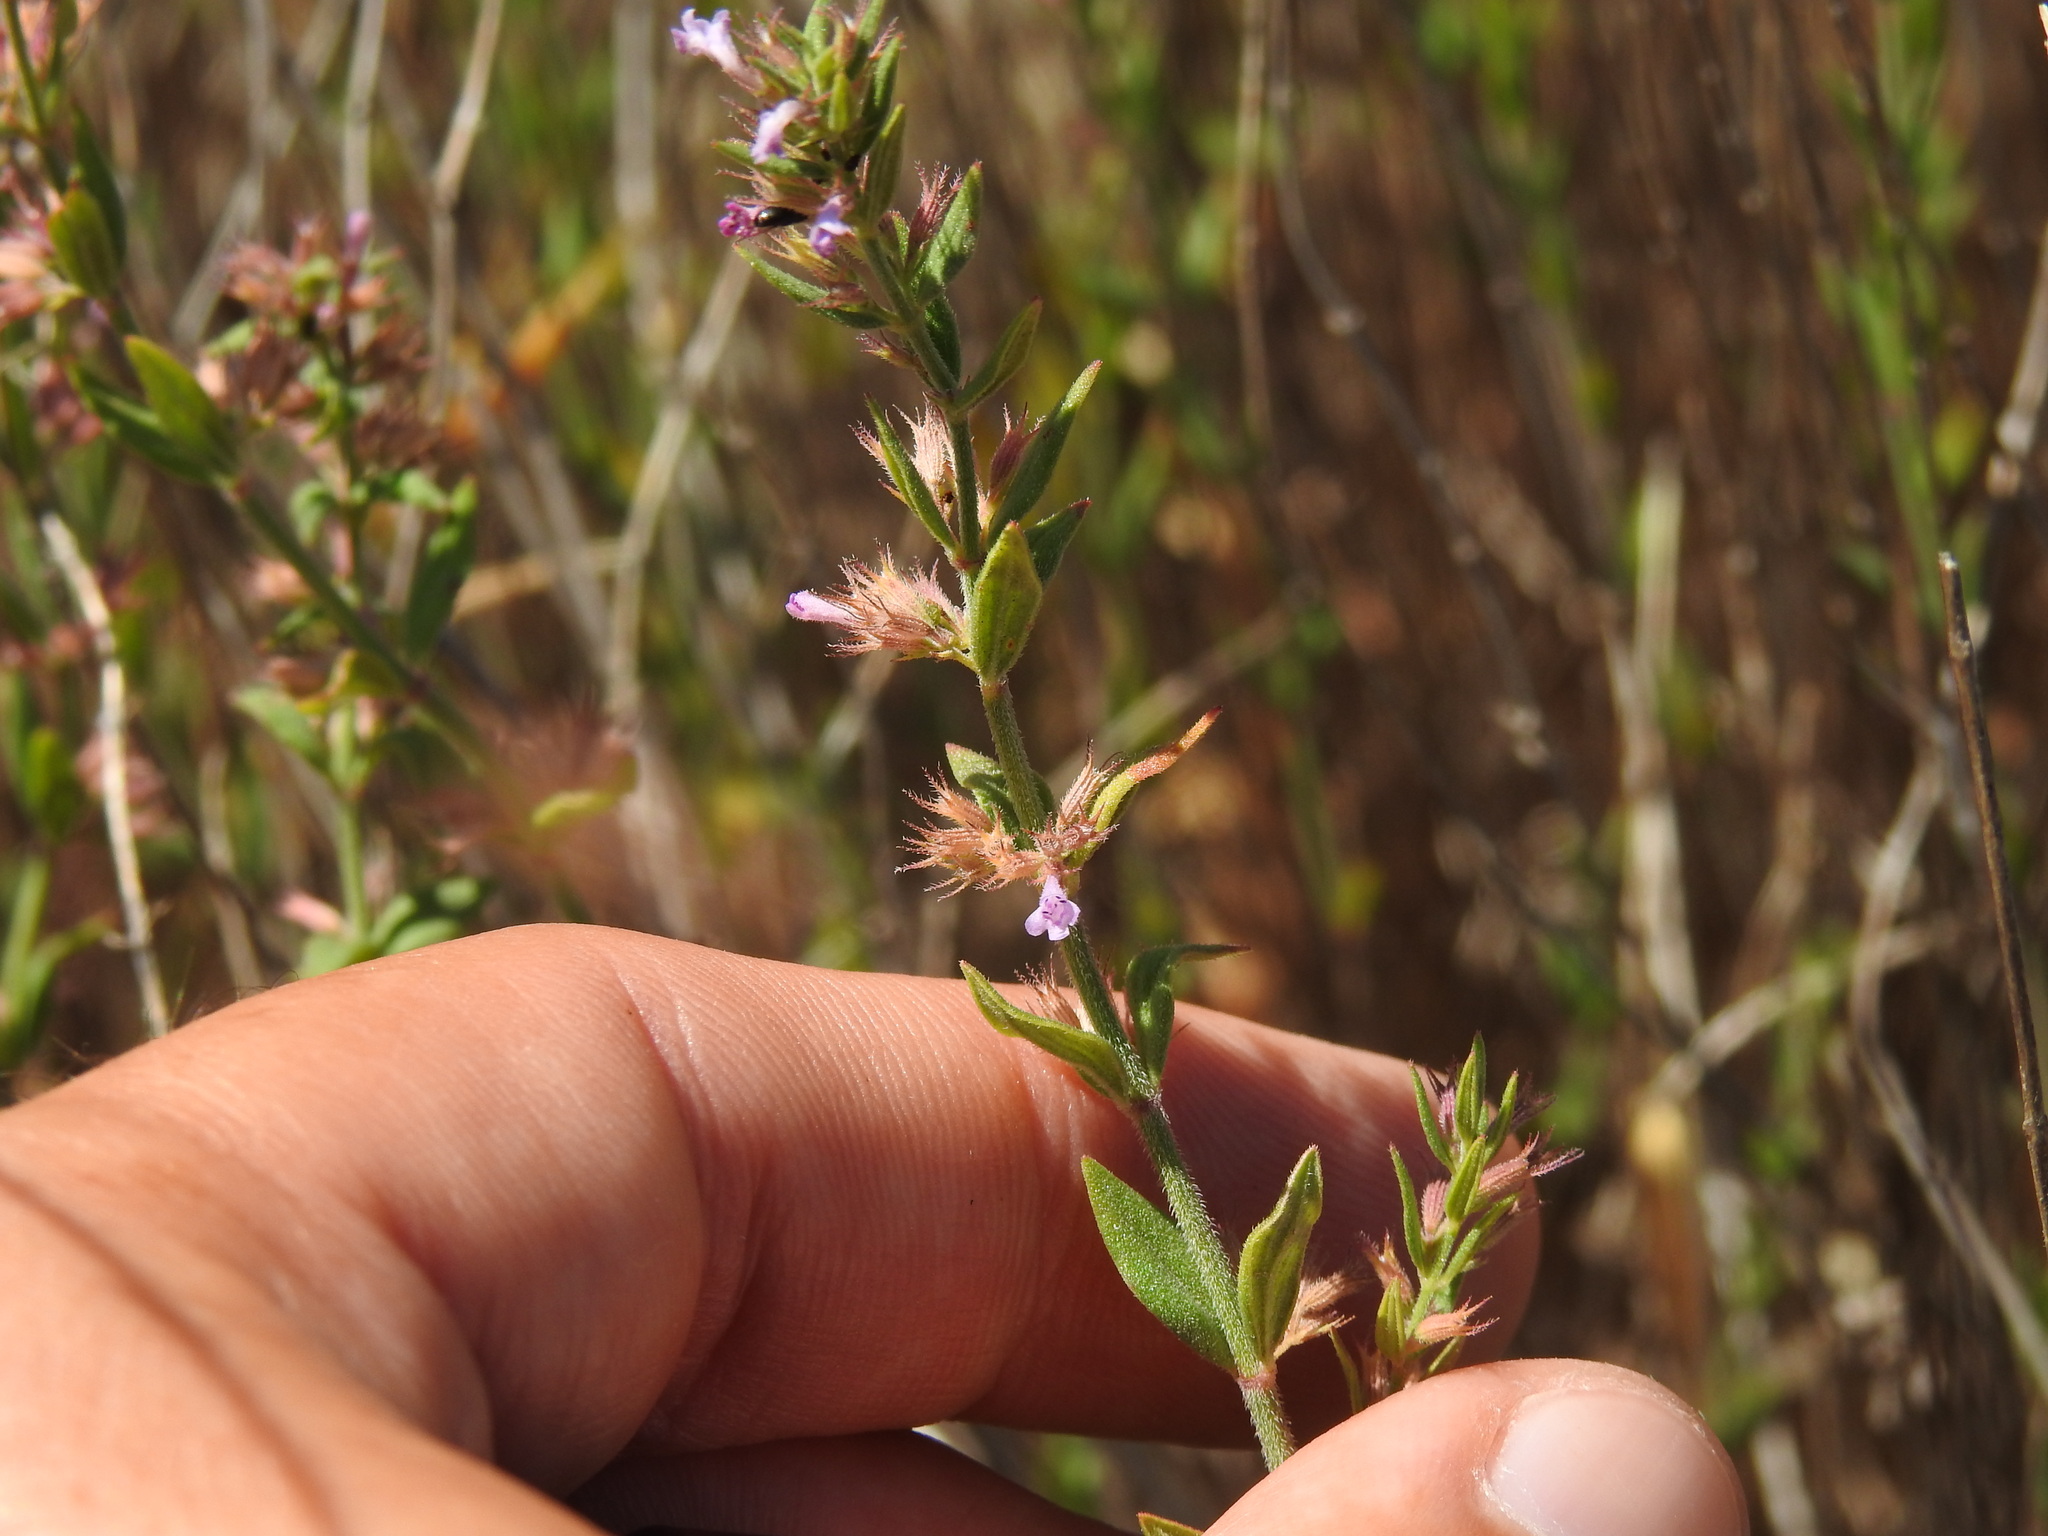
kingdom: Plantae
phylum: Tracheophyta
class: Magnoliopsida
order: Lamiales
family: Lamiaceae
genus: Micromeria
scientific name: Micromeria graeca
